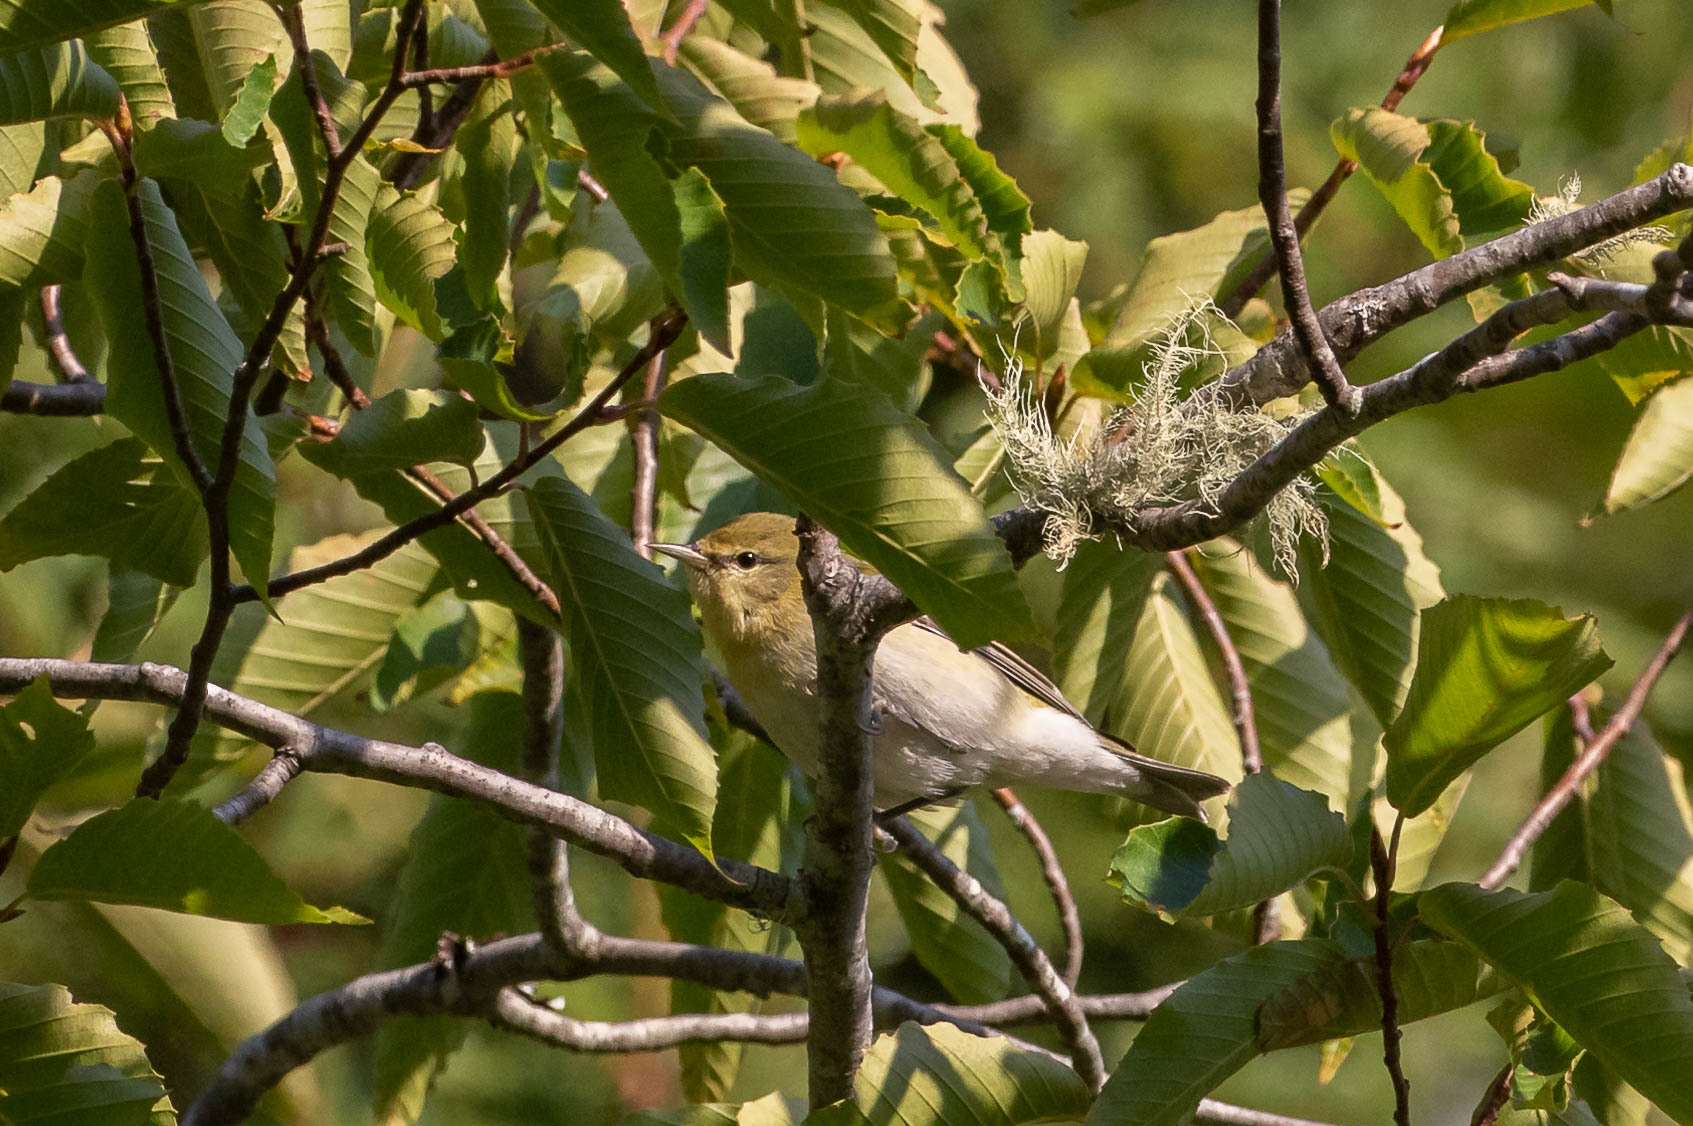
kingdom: Animalia
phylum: Chordata
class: Aves
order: Passeriformes
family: Parulidae
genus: Leiothlypis
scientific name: Leiothlypis peregrina
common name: Tennessee warbler
